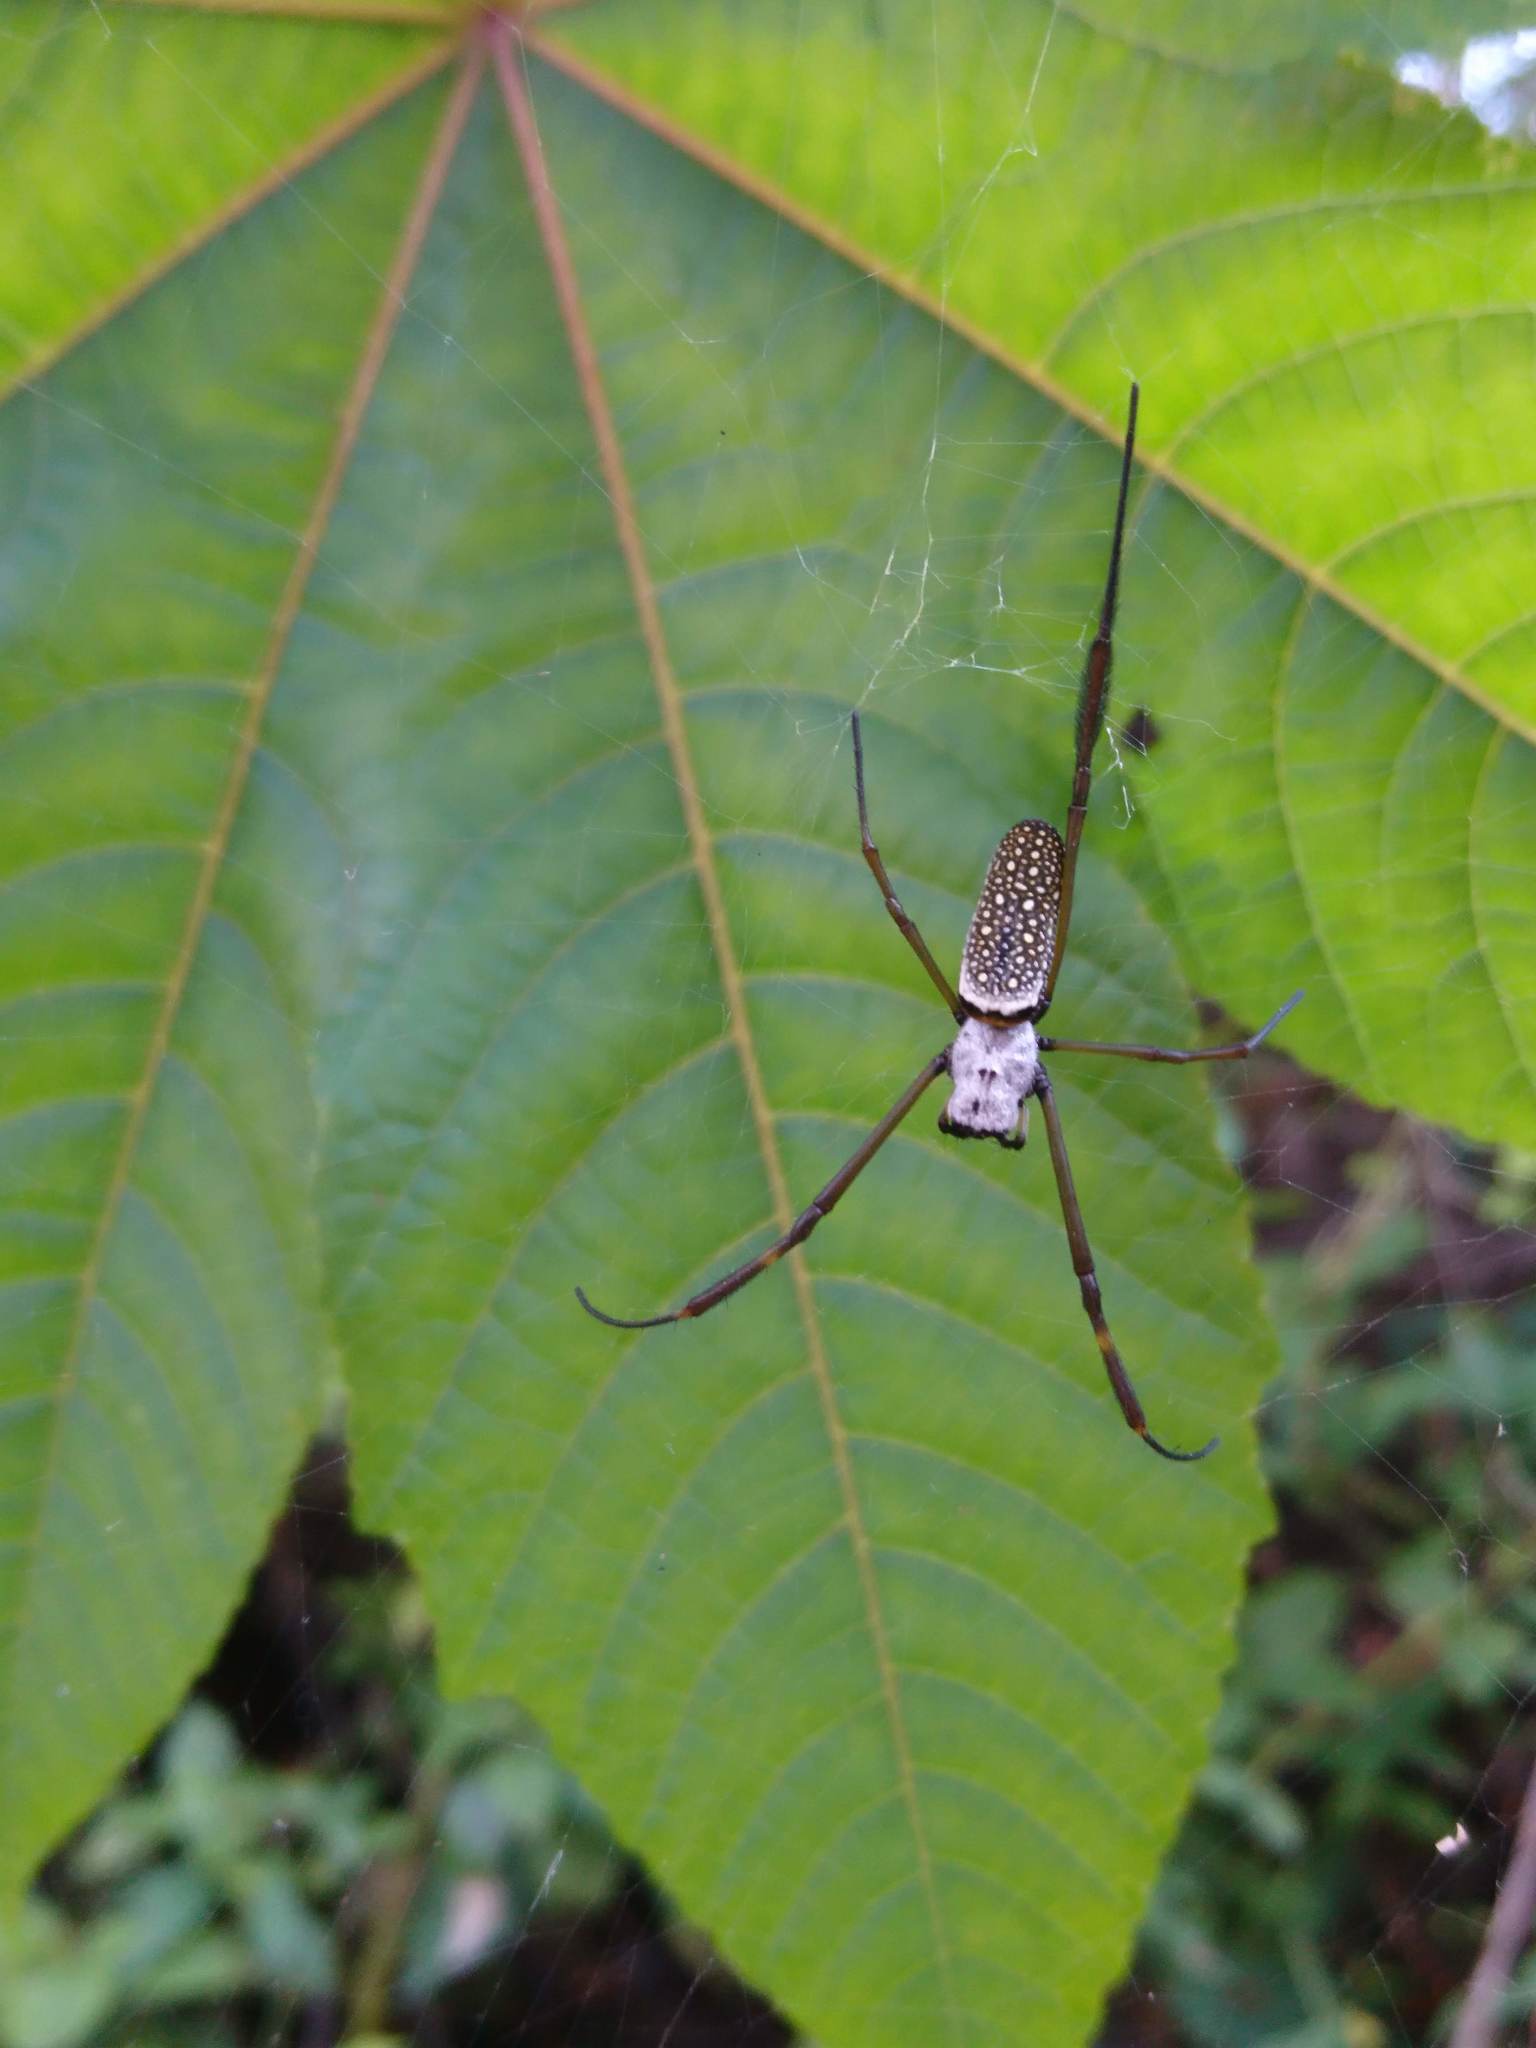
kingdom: Animalia
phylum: Arthropoda
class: Arachnida
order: Araneae
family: Araneidae
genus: Trichonephila
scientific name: Trichonephila clavipes
